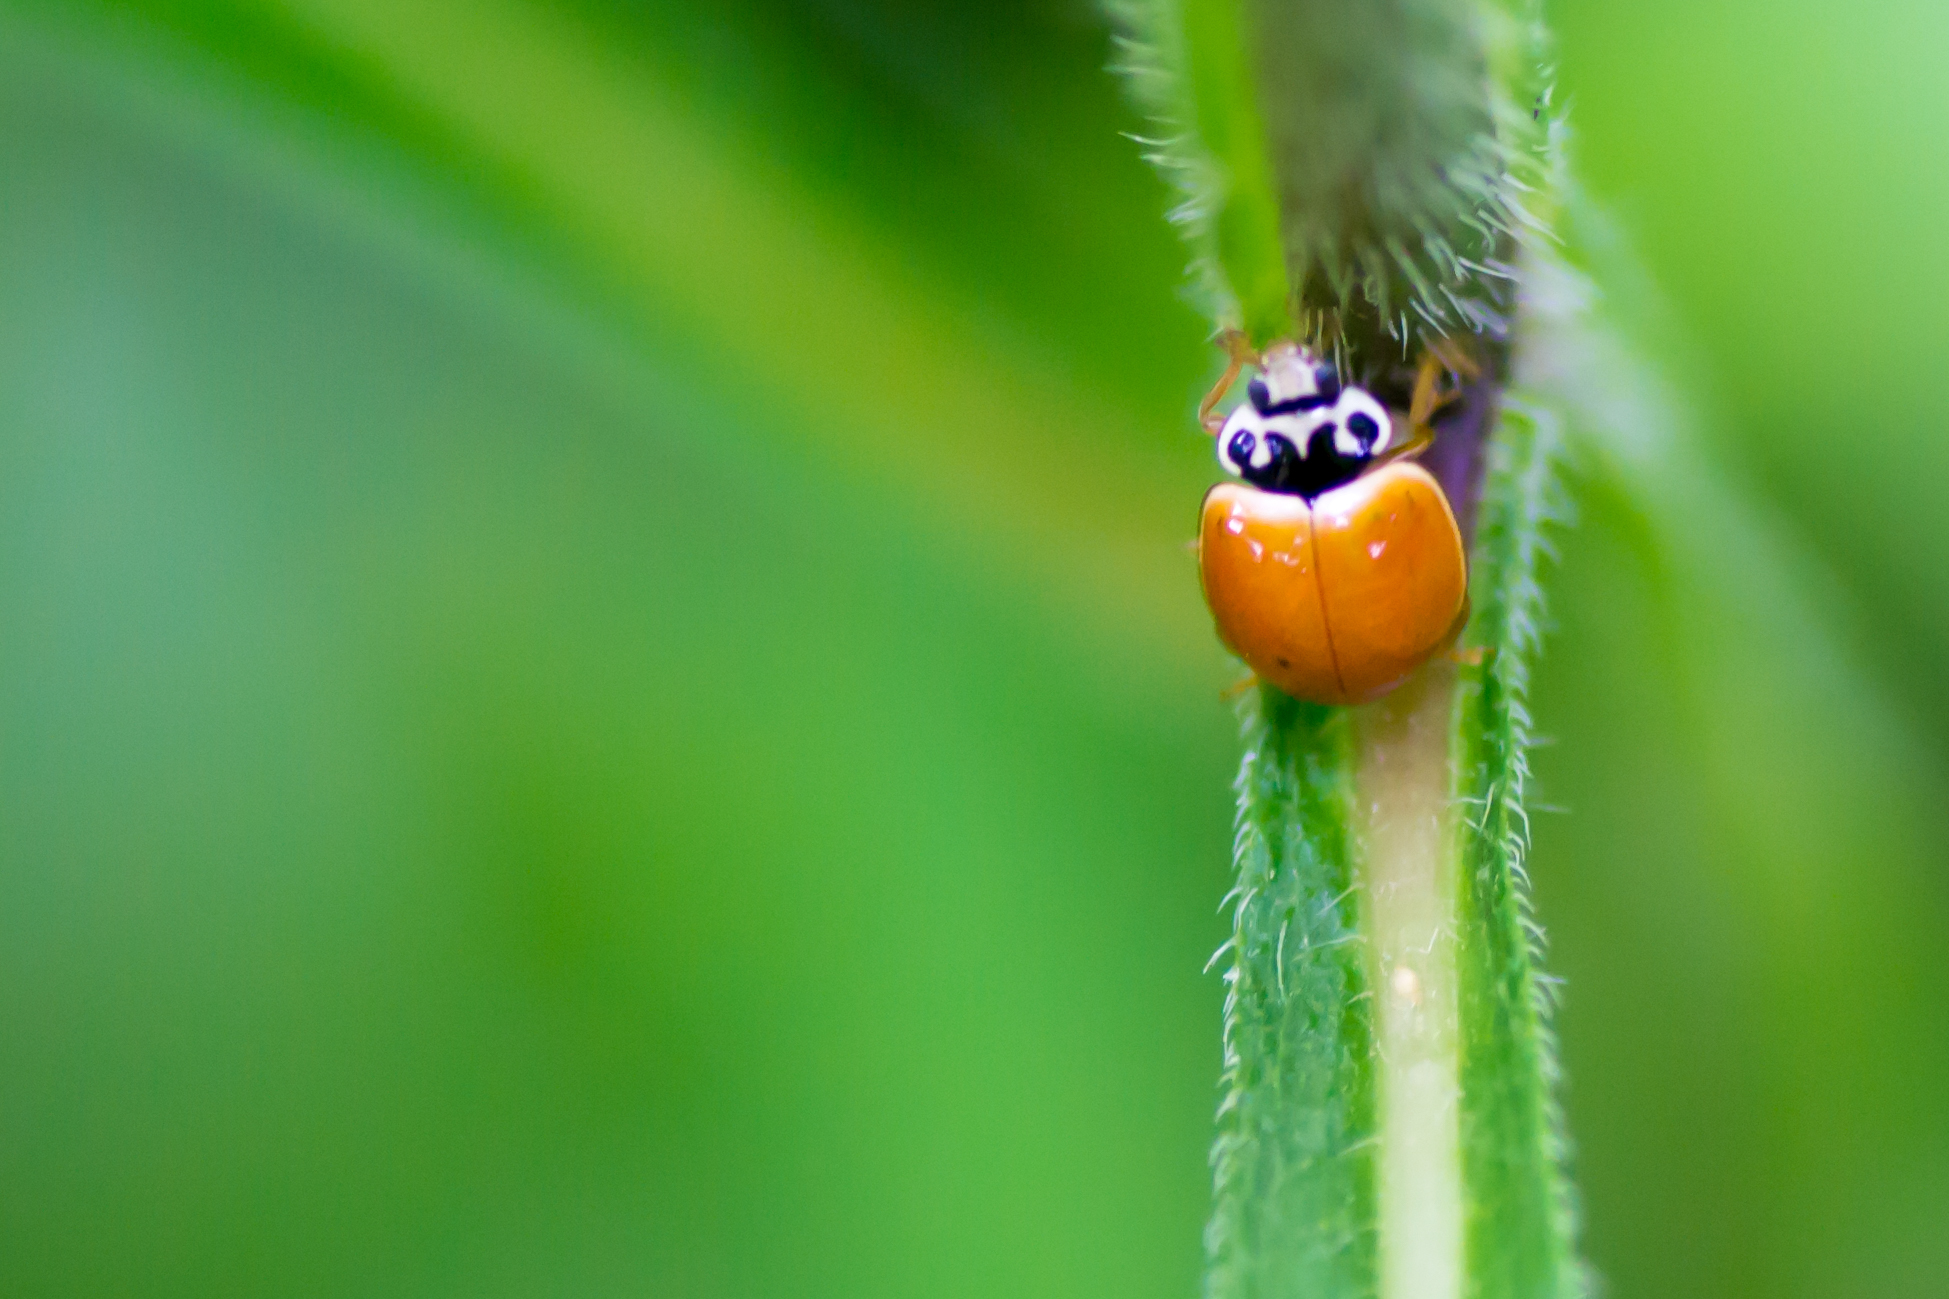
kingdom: Animalia
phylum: Arthropoda
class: Insecta
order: Coleoptera
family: Coccinellidae
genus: Cycloneda
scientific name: Cycloneda munda
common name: Polished lady beetle
